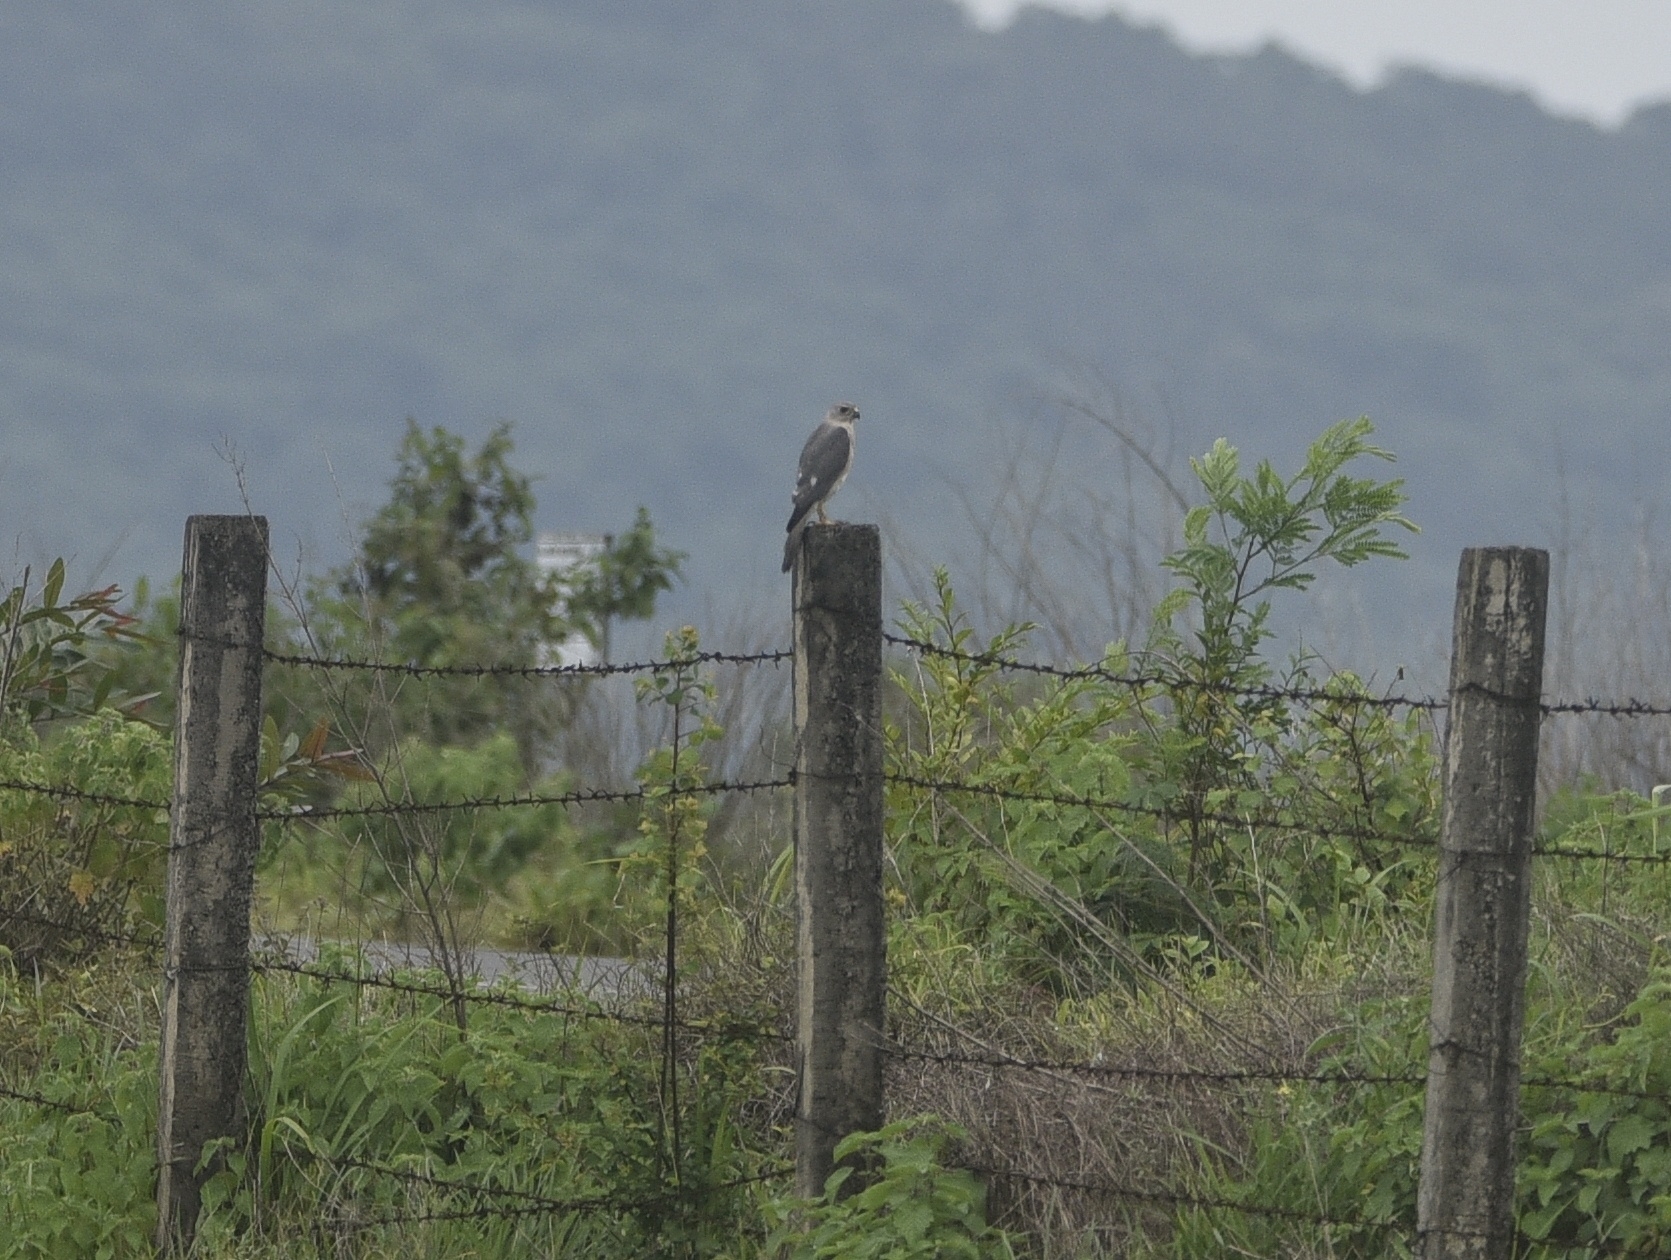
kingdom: Animalia
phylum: Chordata
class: Aves
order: Accipitriformes
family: Accipitridae
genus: Accipiter
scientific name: Accipiter badius
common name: Shikra
